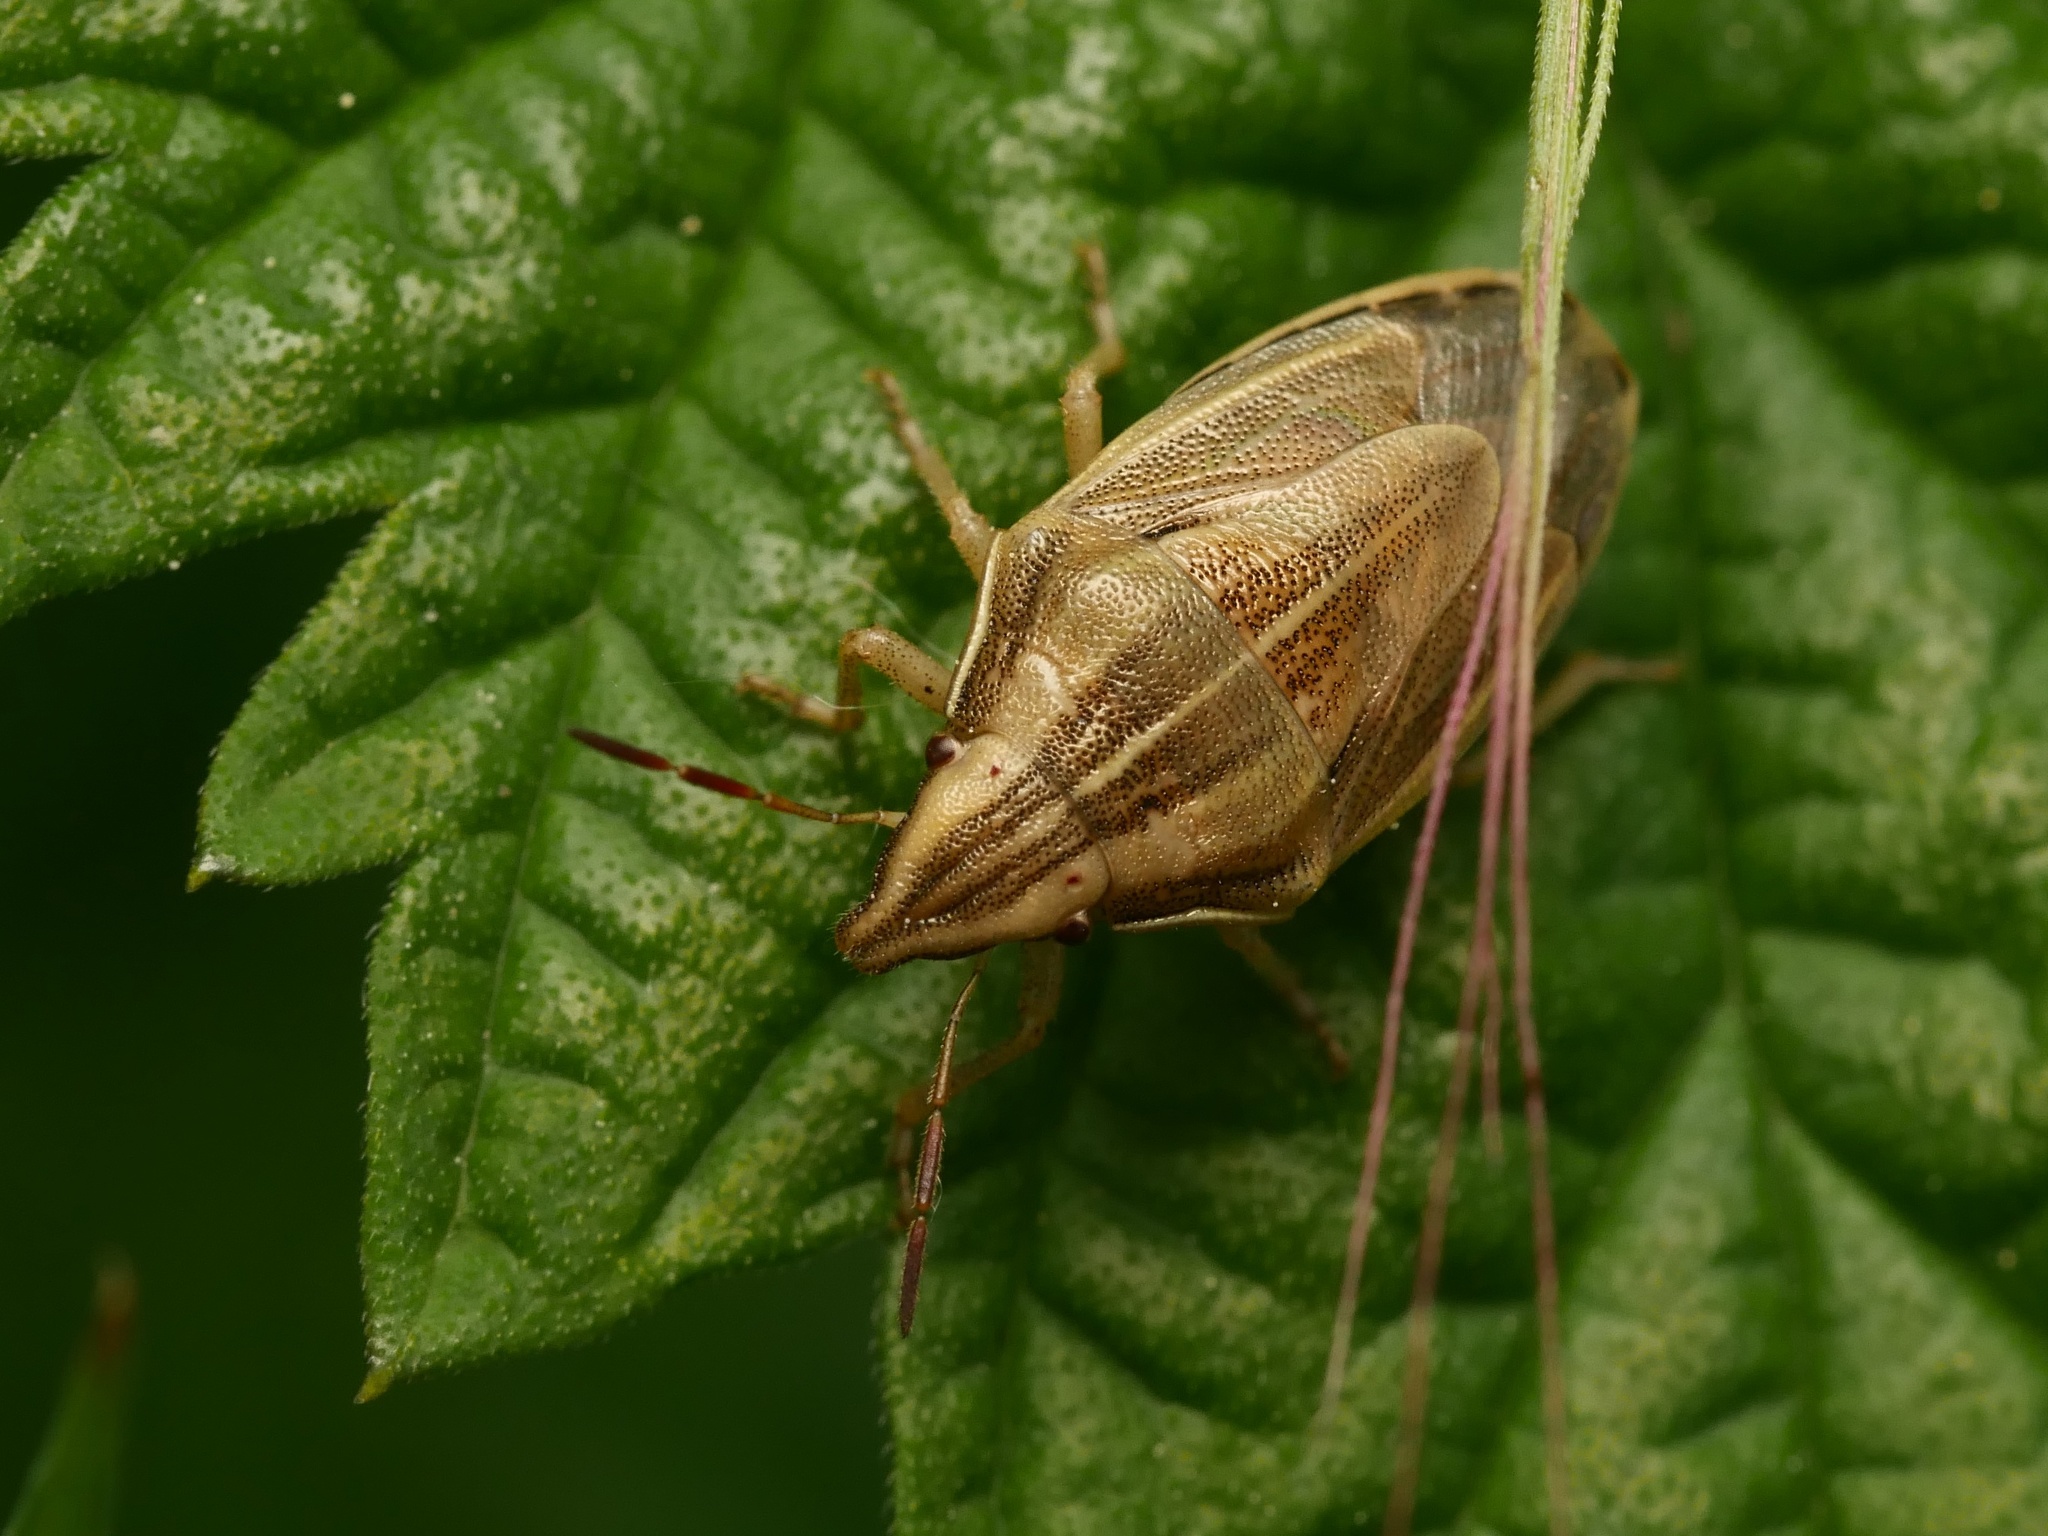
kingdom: Animalia
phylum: Arthropoda
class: Insecta
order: Hemiptera
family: Pentatomidae
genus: Aelia
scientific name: Aelia acuminata
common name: Bishop's mitre
